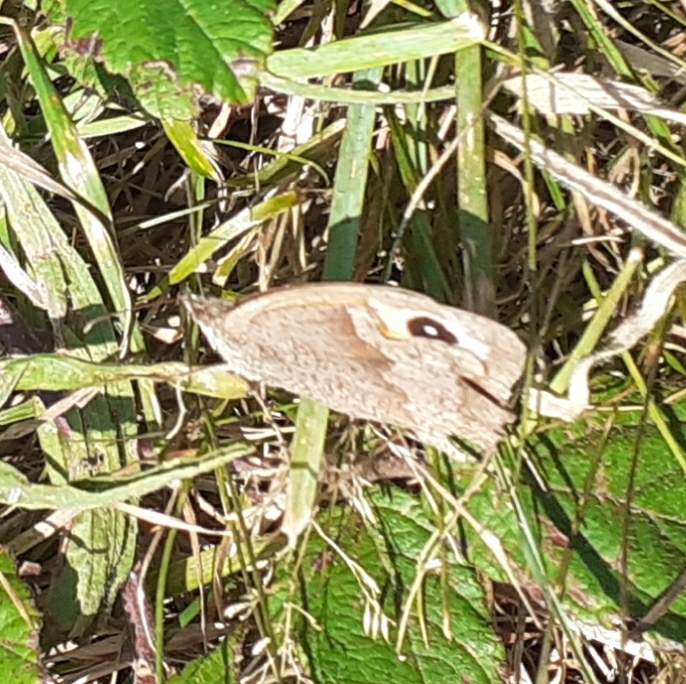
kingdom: Animalia
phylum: Arthropoda
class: Insecta
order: Lepidoptera
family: Nymphalidae
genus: Maniola
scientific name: Maniola jurtina
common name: Meadow brown
